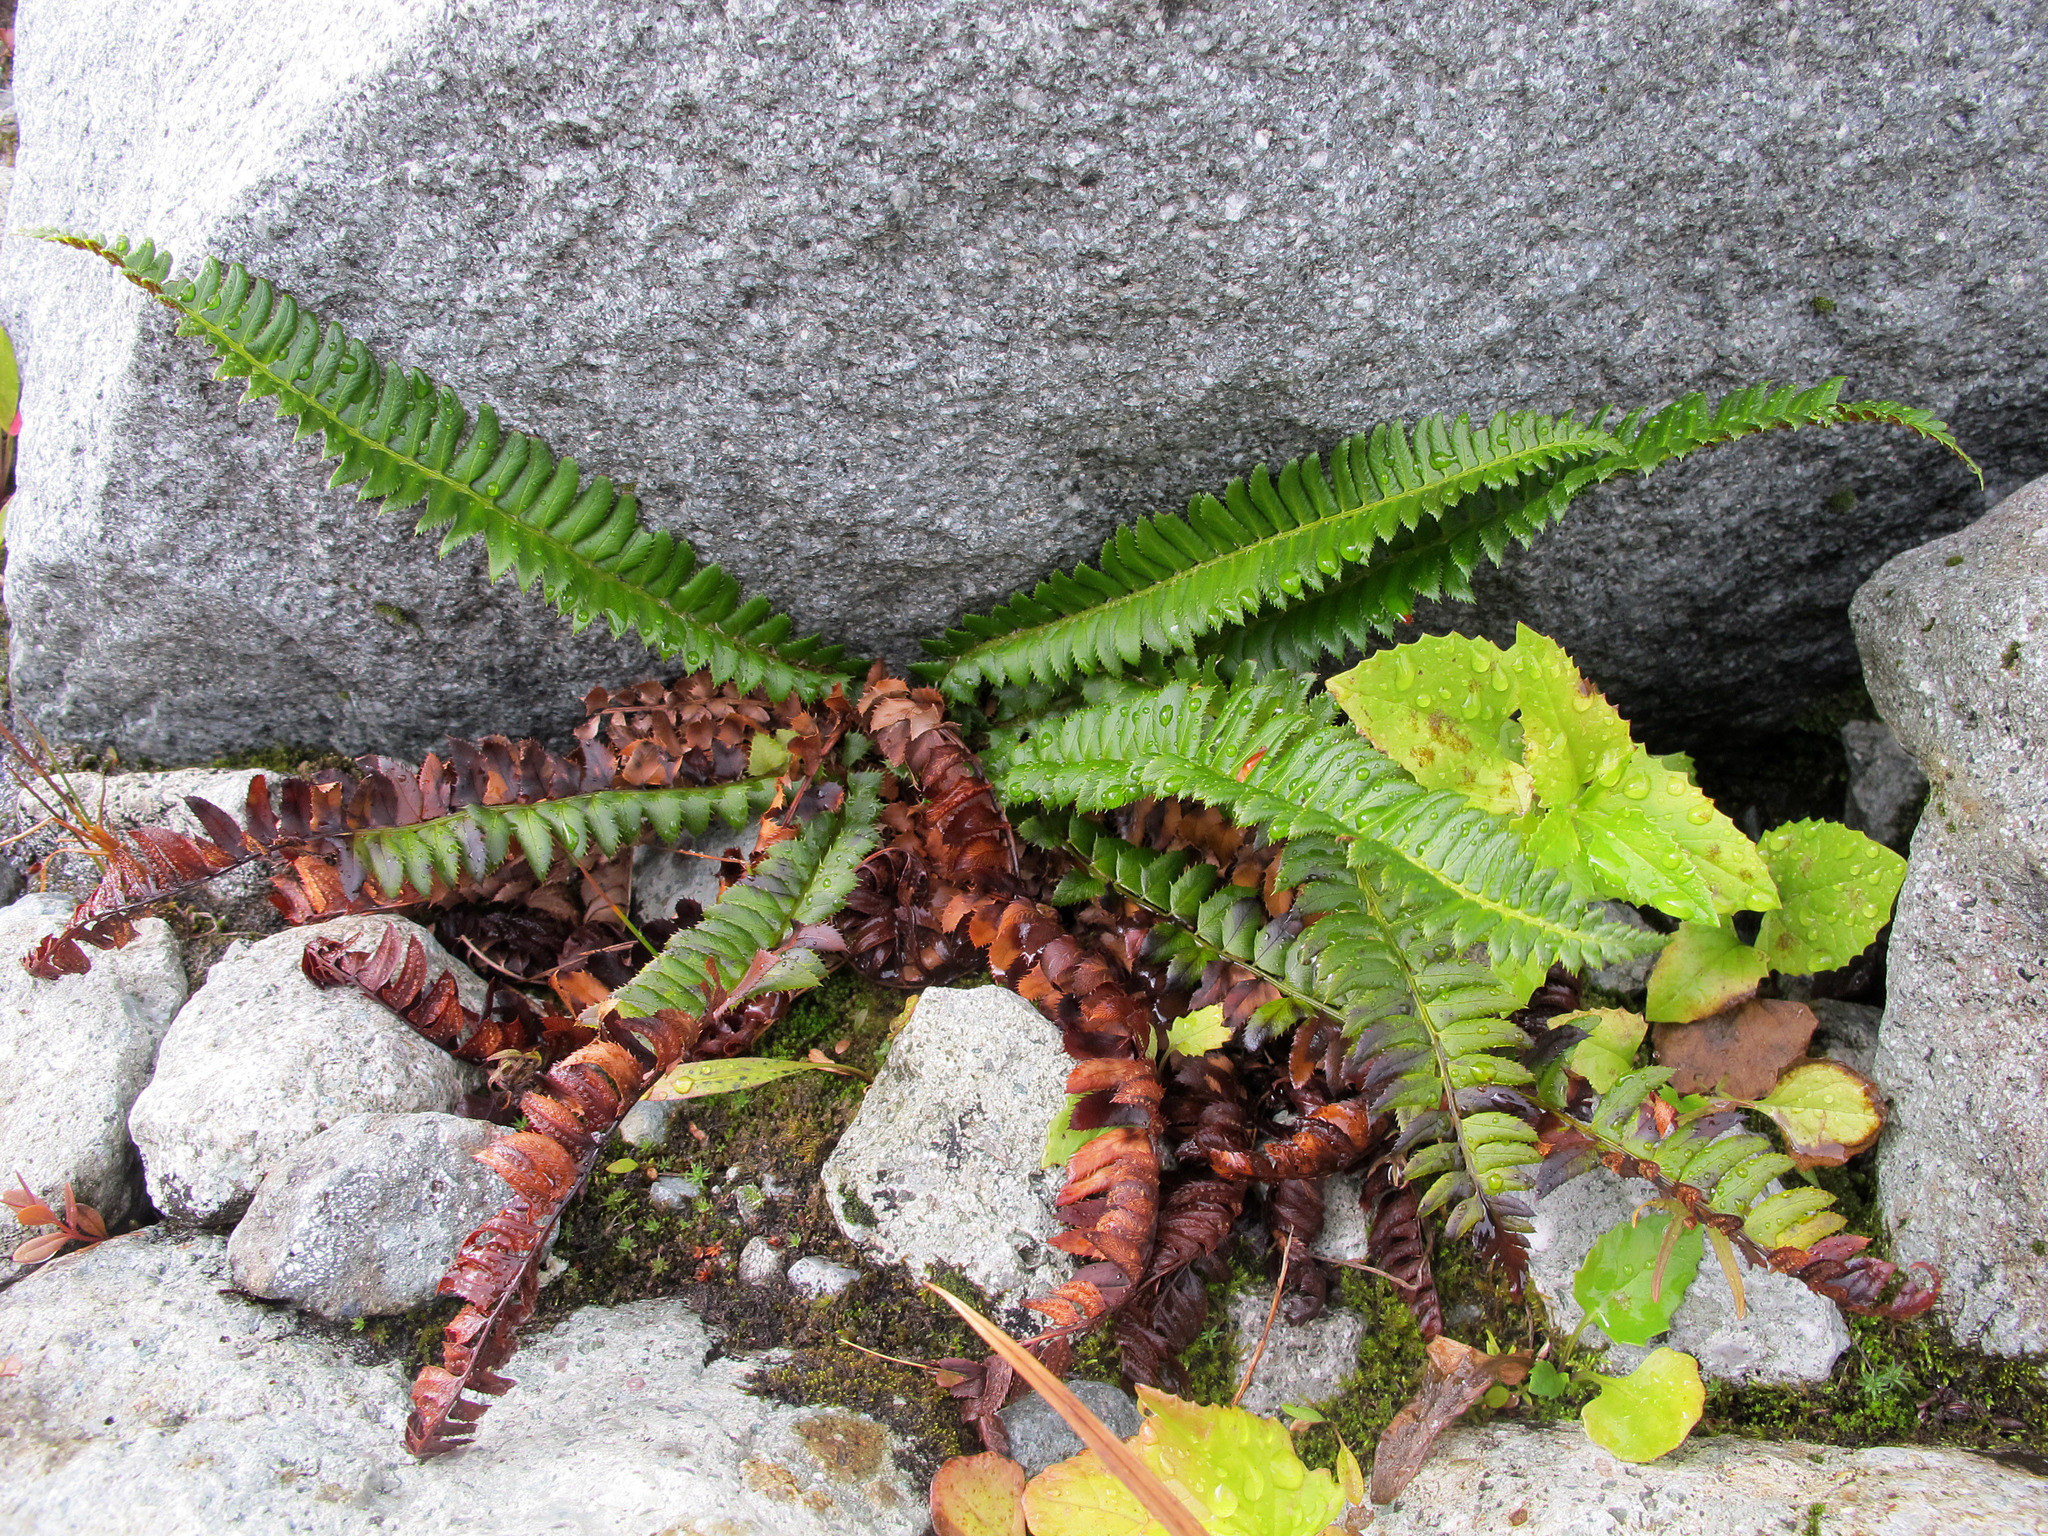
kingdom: Plantae
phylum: Tracheophyta
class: Polypodiopsida
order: Polypodiales
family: Dryopteridaceae
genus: Polystichum
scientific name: Polystichum lonchitis
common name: Holly fern
